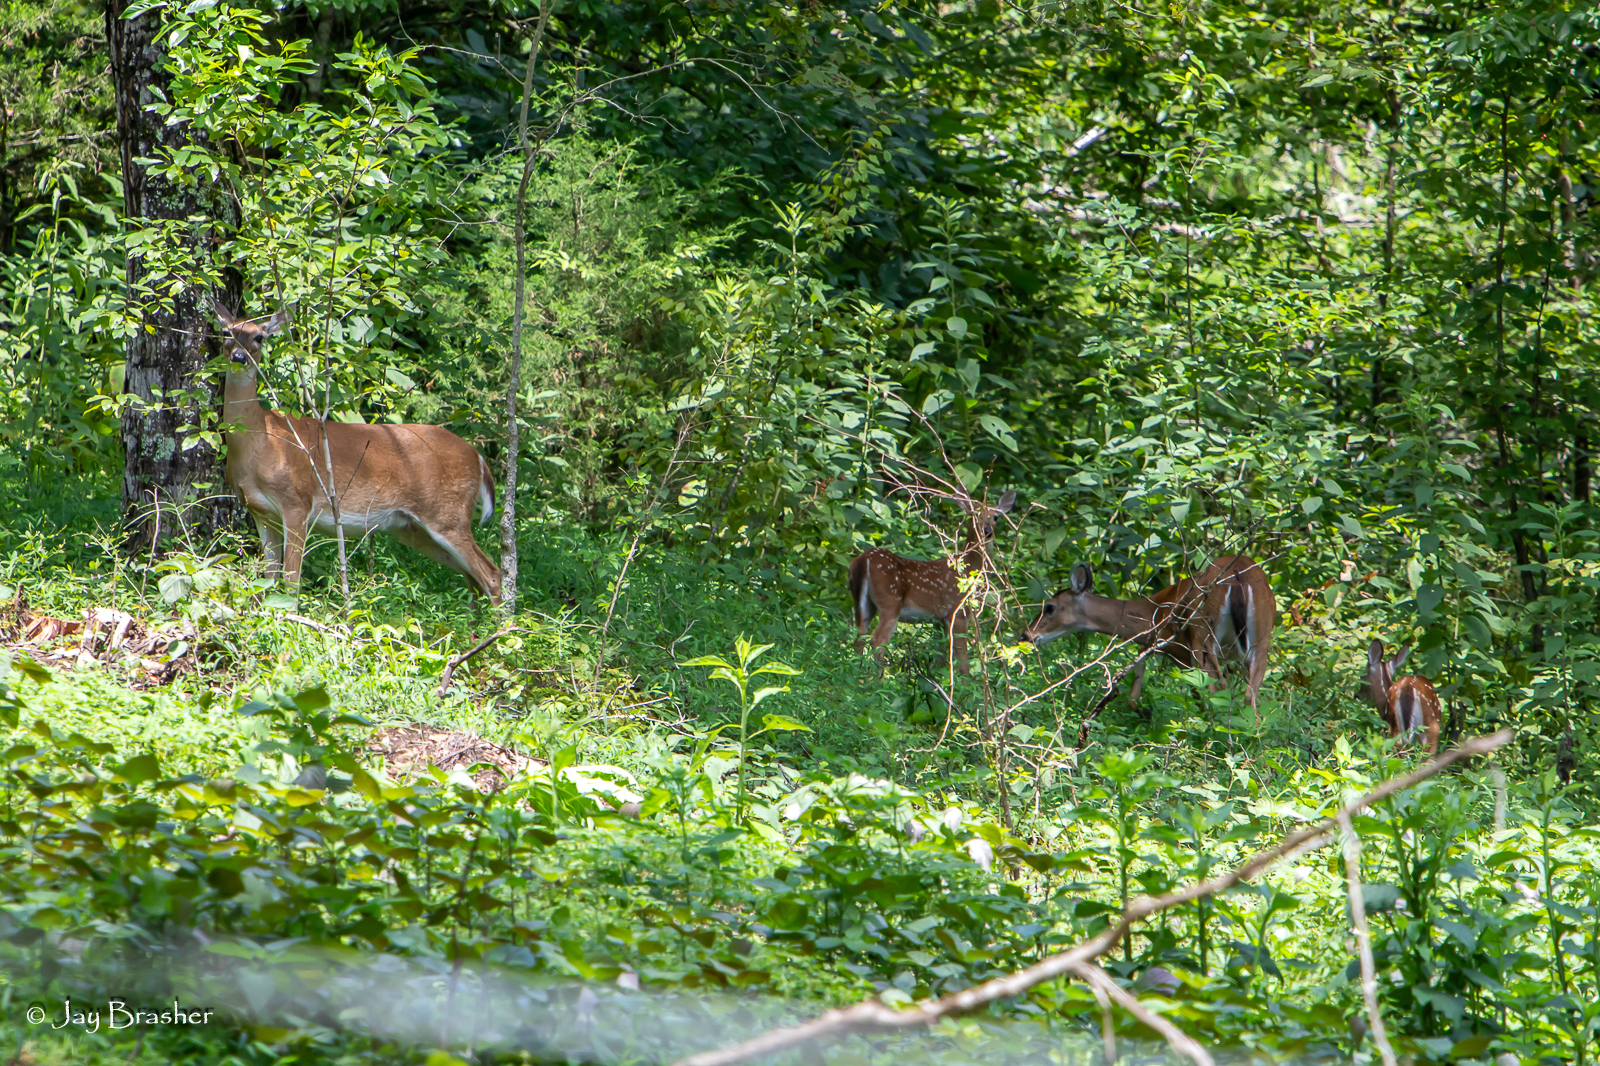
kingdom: Animalia
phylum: Chordata
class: Mammalia
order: Artiodactyla
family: Cervidae
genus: Odocoileus
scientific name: Odocoileus virginianus
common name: White-tailed deer
